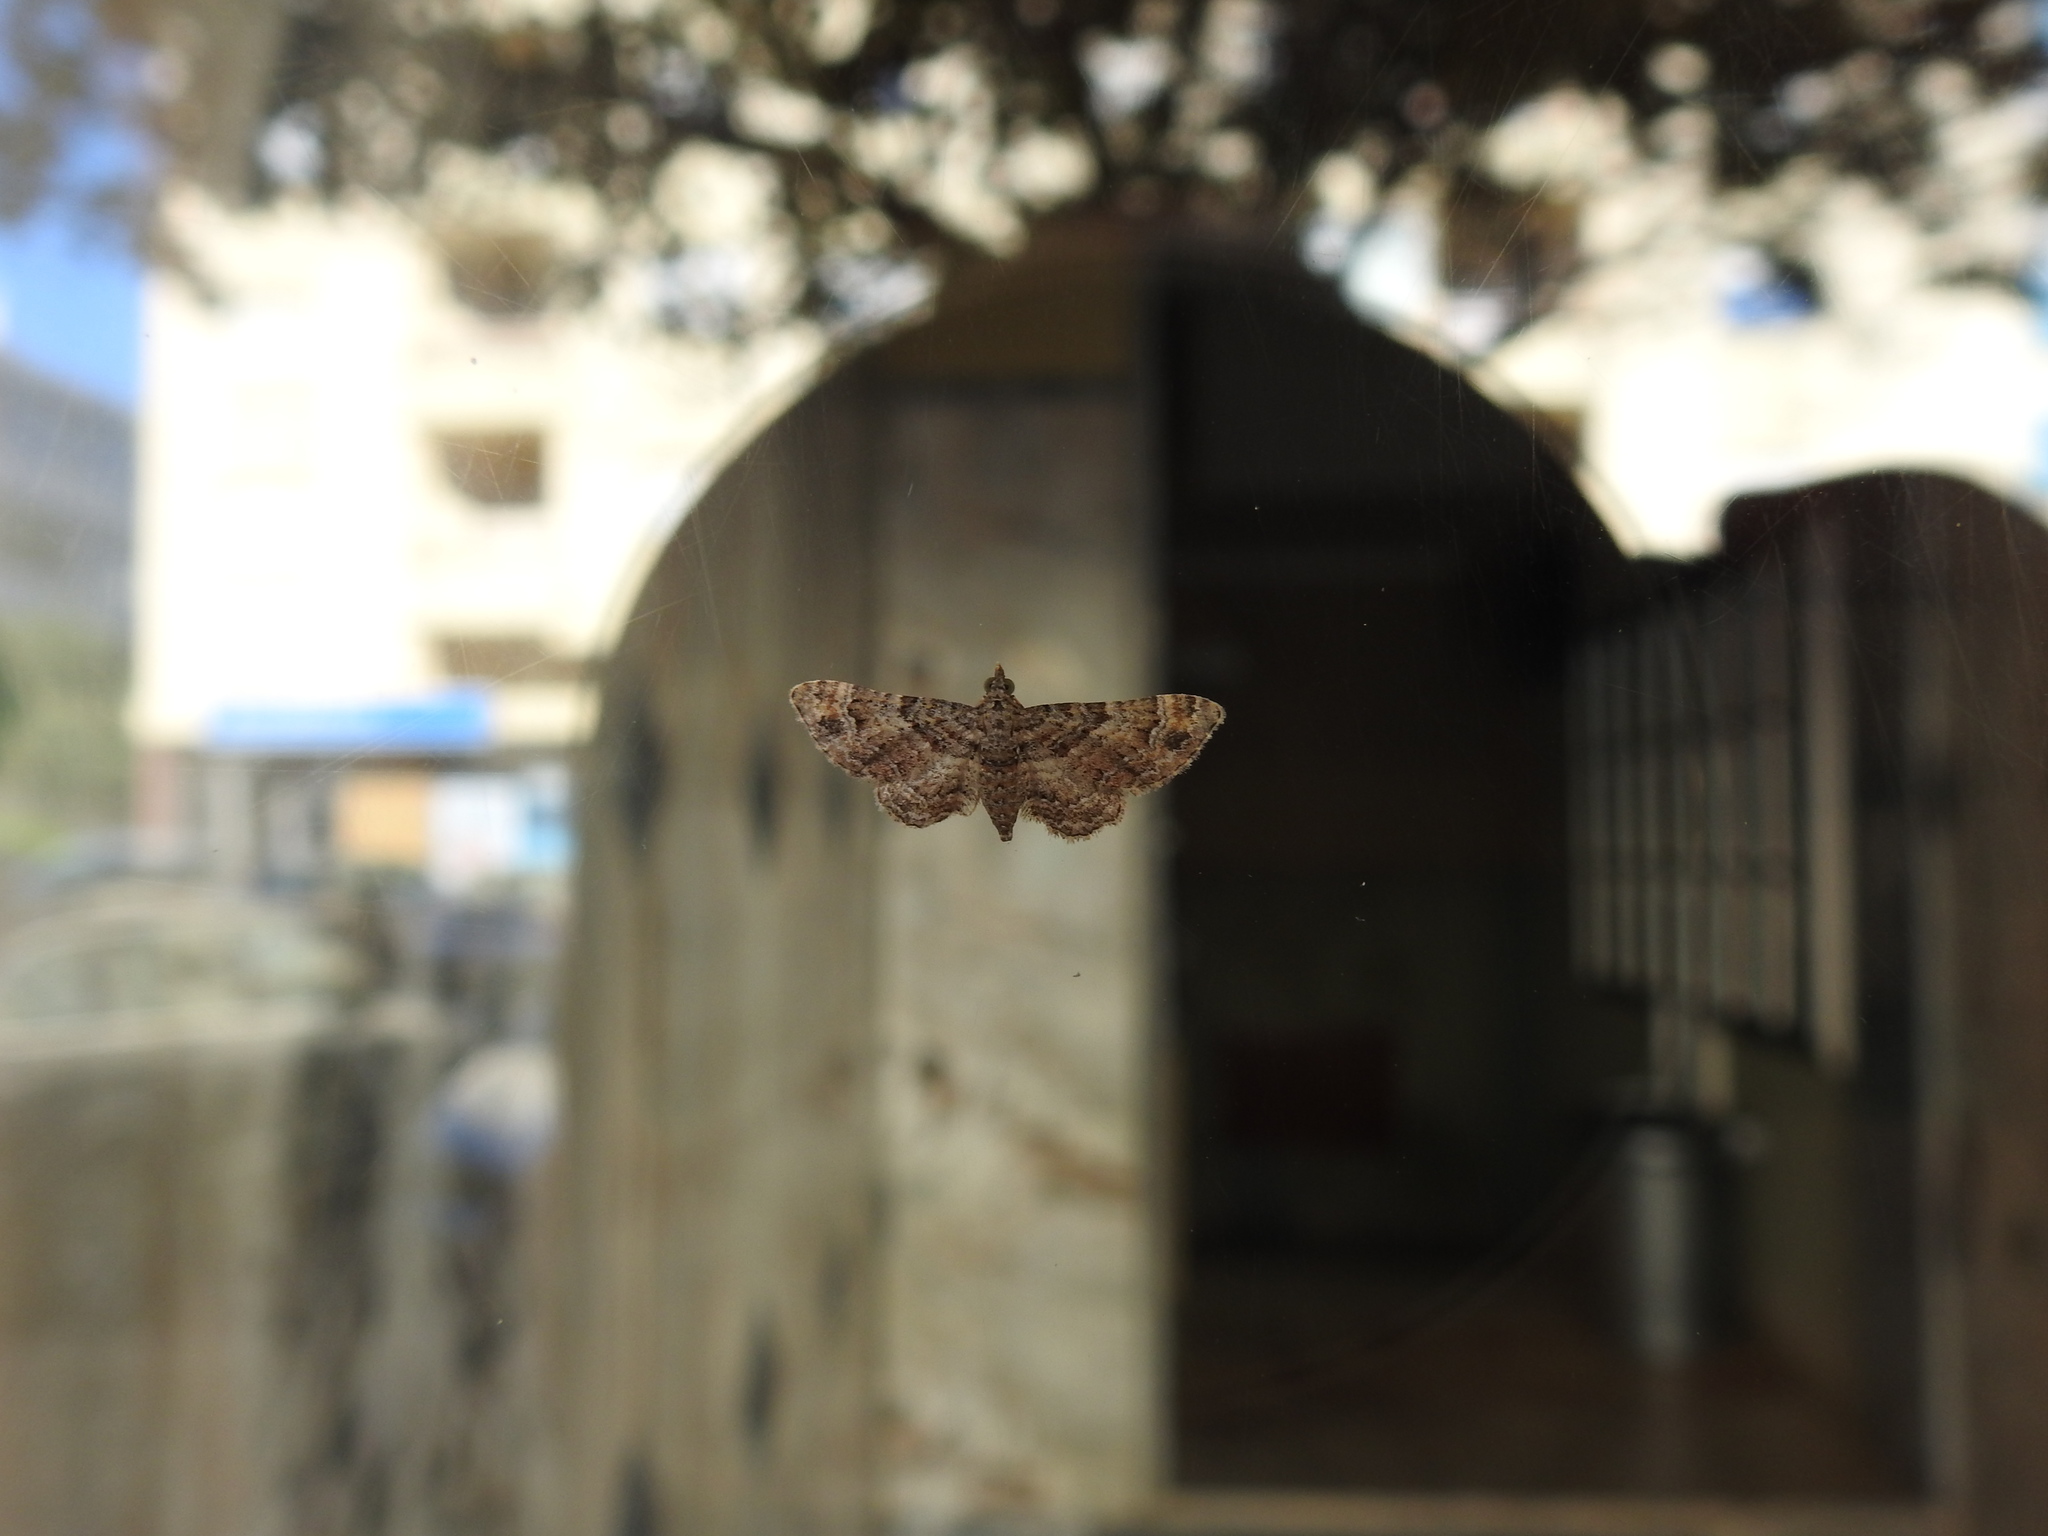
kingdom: Animalia
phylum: Arthropoda
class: Insecta
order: Lepidoptera
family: Geometridae
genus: Gymnoscelis
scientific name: Gymnoscelis rufifasciata
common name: Double-striped pug
